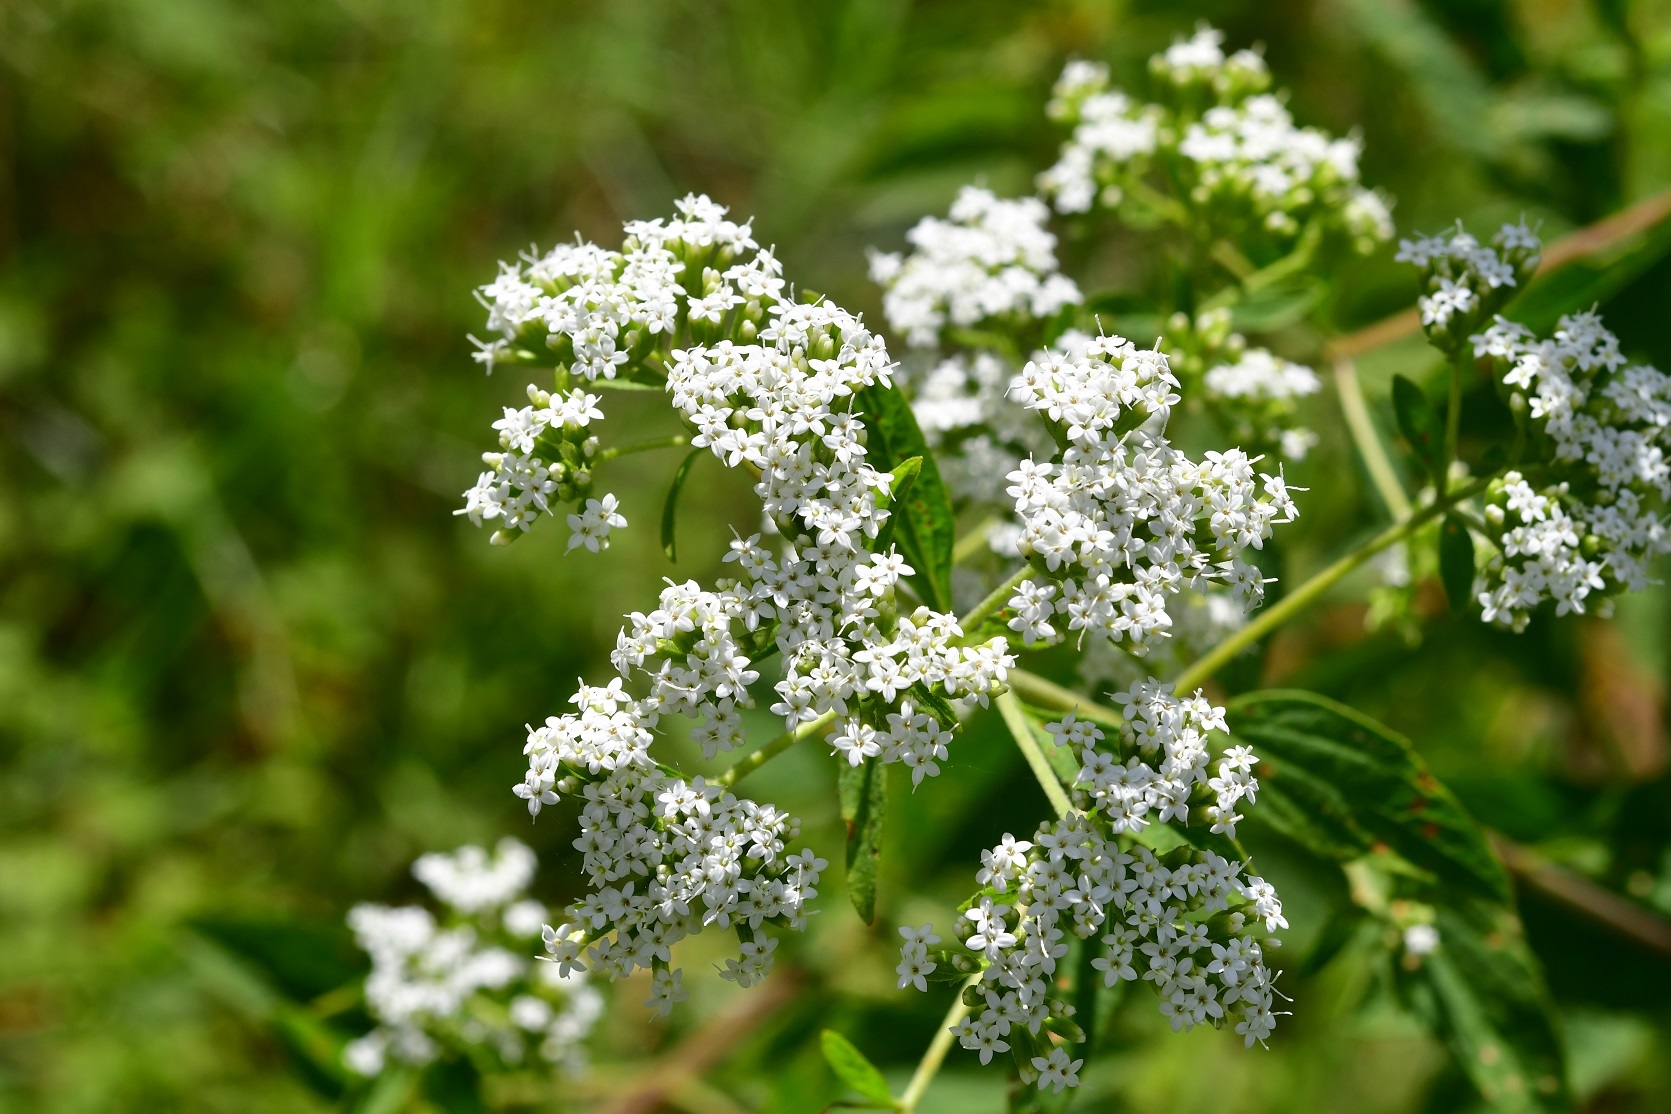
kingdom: Plantae
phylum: Tracheophyta
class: Magnoliopsida
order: Asterales
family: Asteraceae
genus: Stevia
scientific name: Stevia ovata
